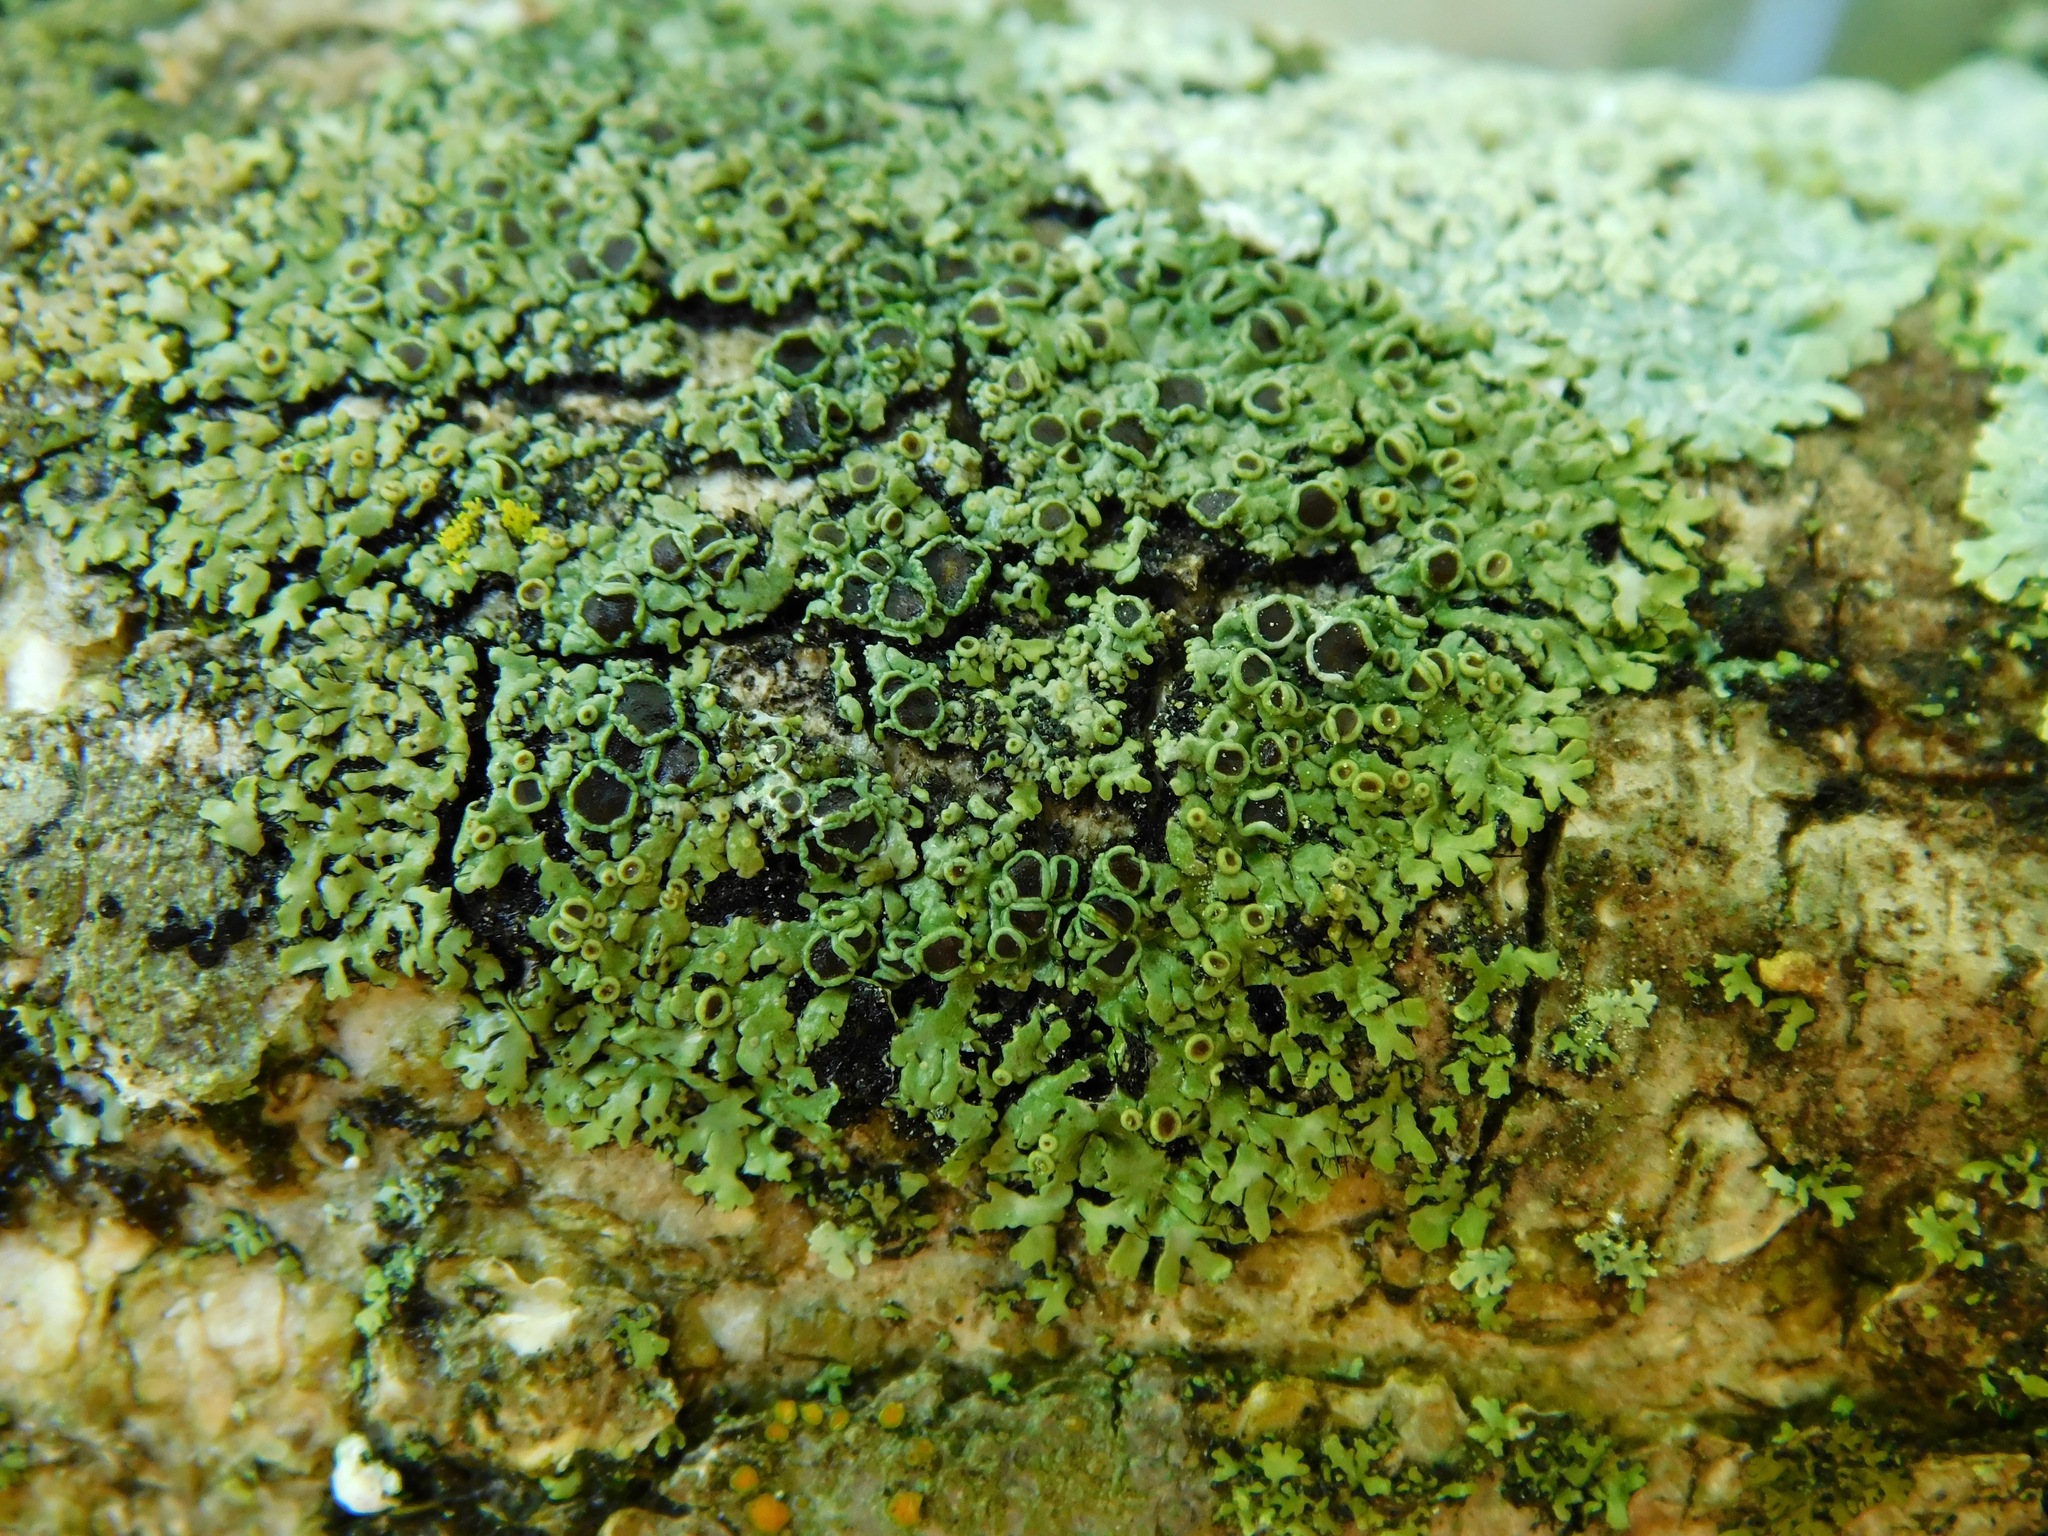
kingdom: Fungi
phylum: Ascomycota
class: Lecanoromycetes
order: Caliciales
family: Physciaceae
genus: Hyperphyscia
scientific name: Hyperphyscia syncolla
